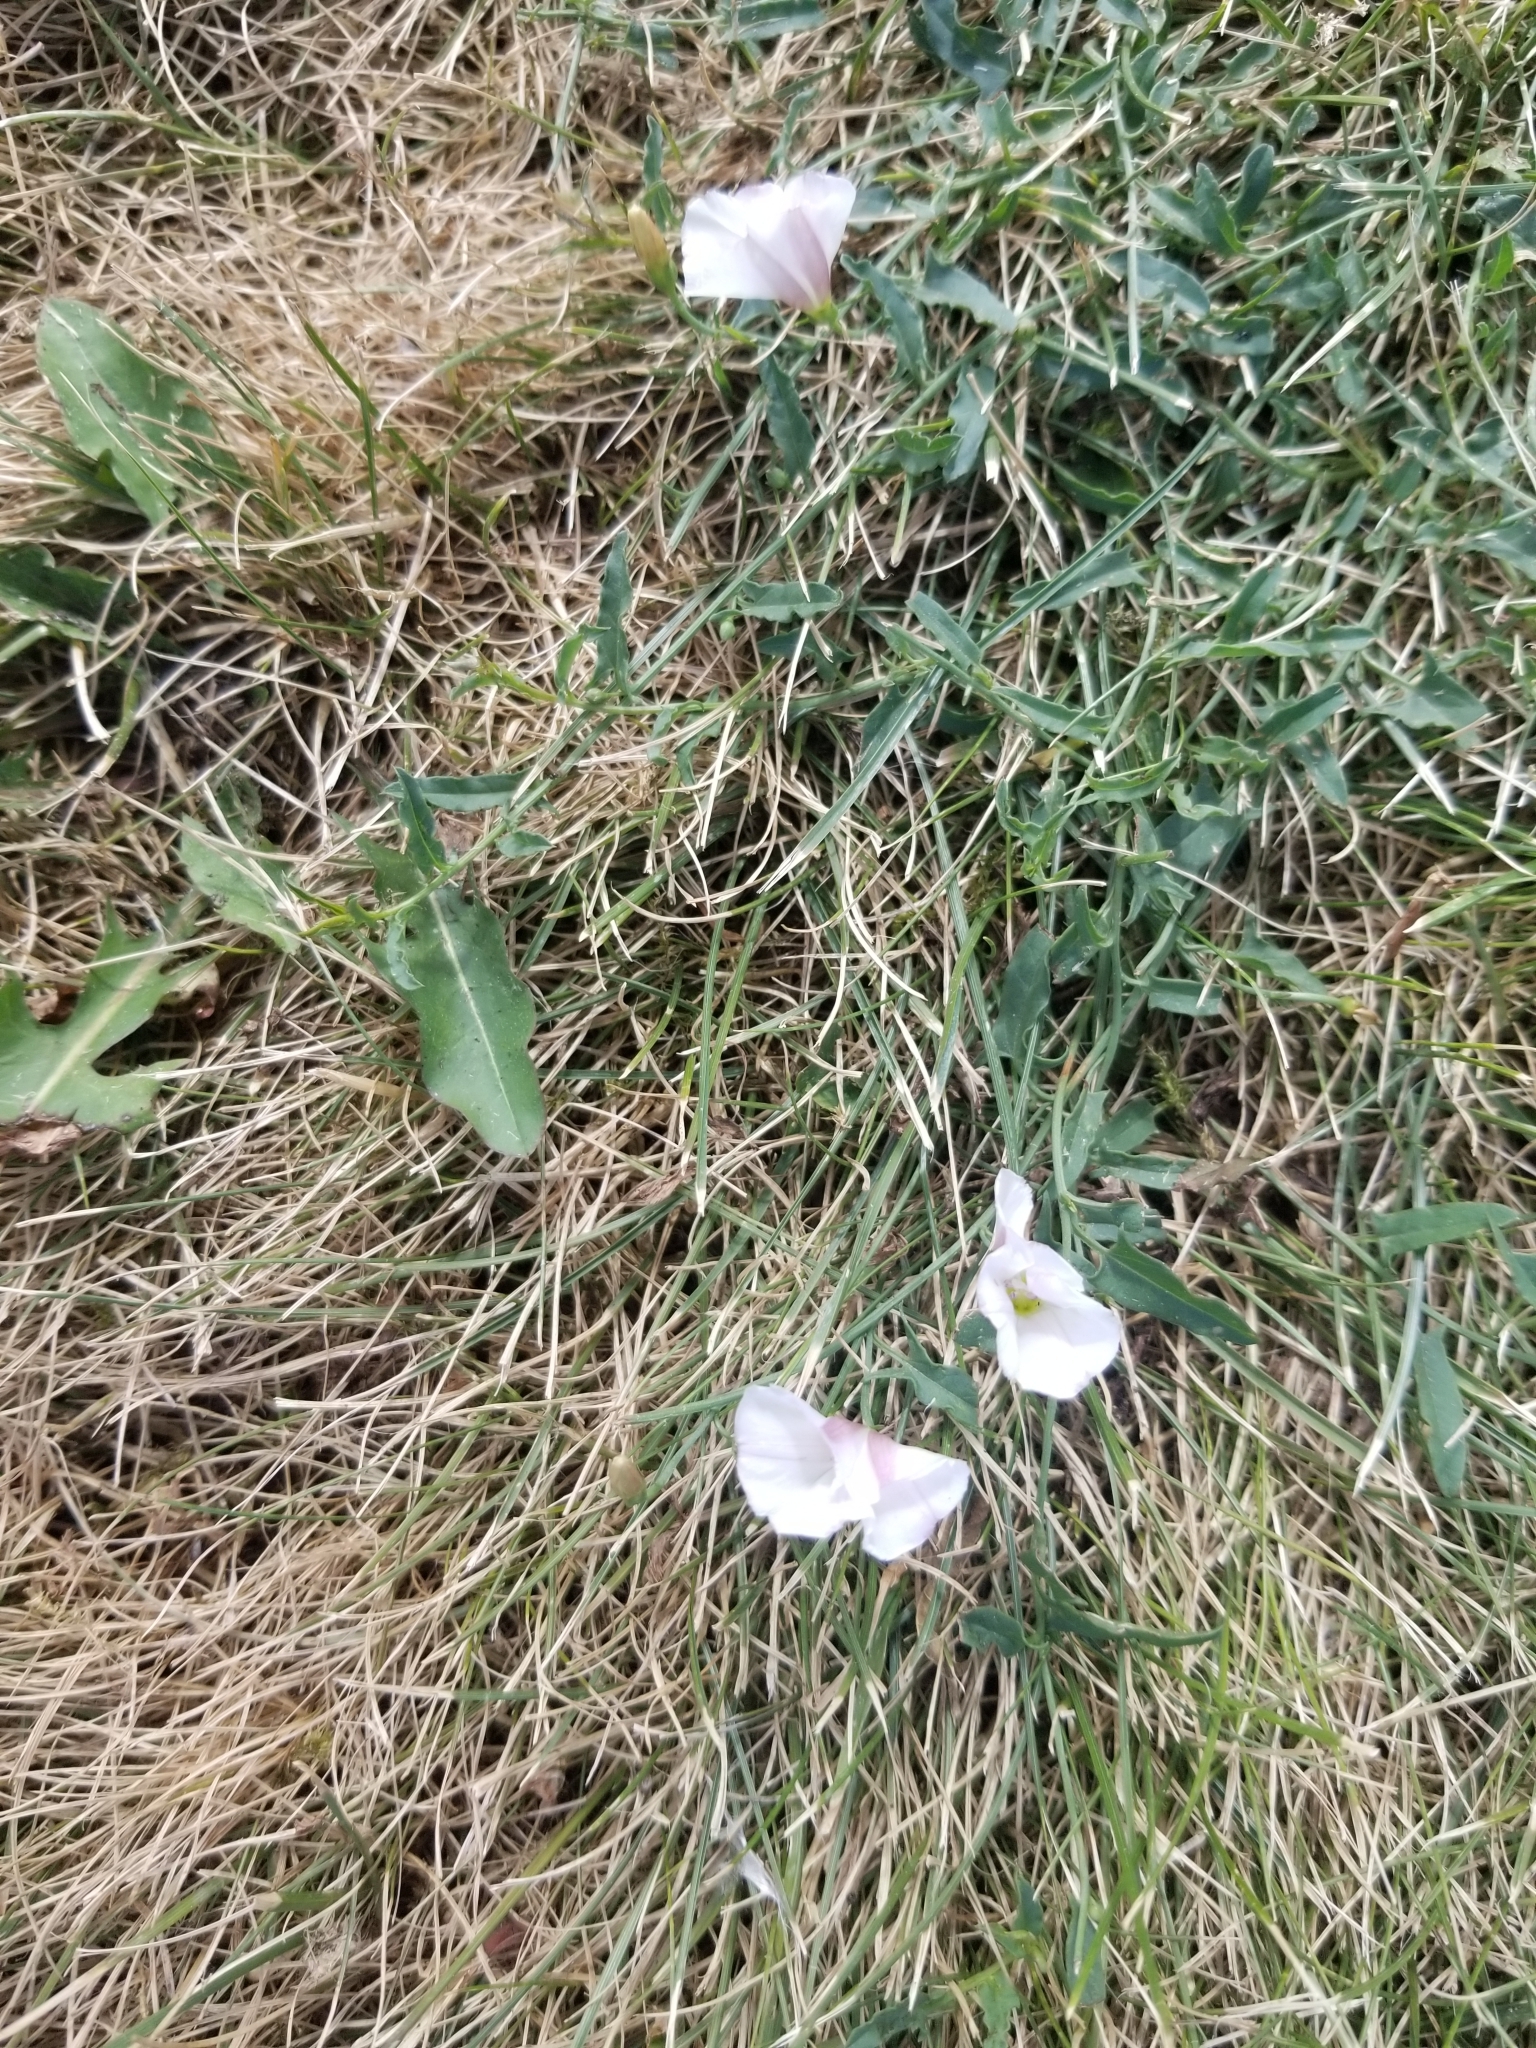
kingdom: Plantae
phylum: Tracheophyta
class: Magnoliopsida
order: Solanales
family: Convolvulaceae
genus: Convolvulus
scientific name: Convolvulus arvensis
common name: Field bindweed
